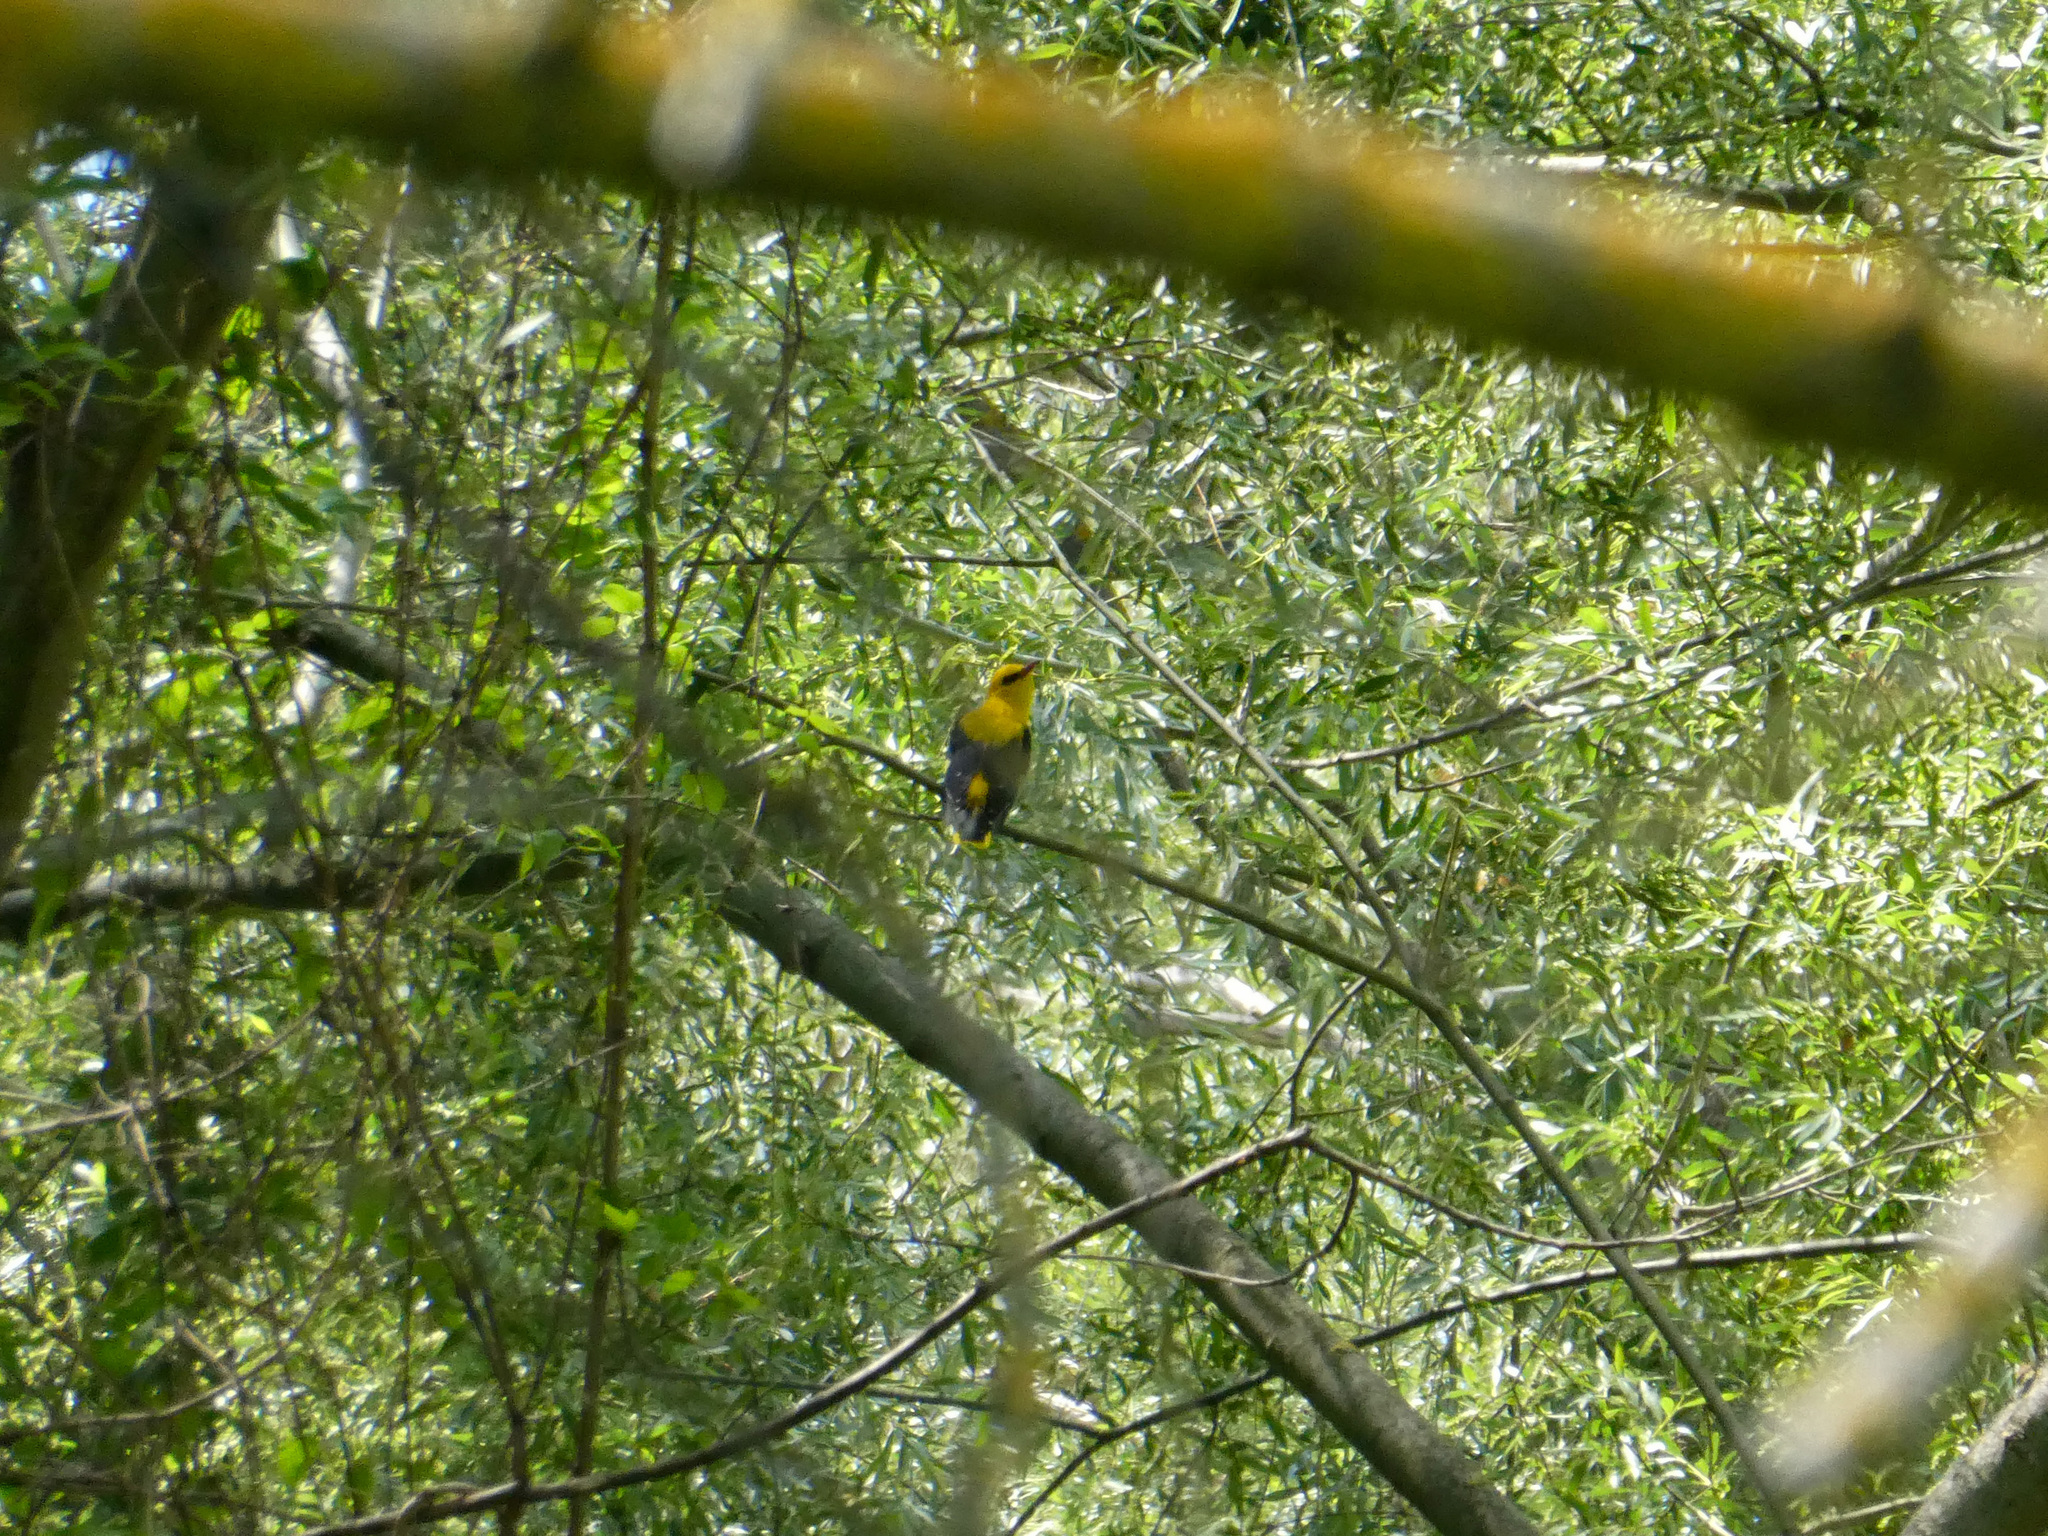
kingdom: Animalia
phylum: Chordata
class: Aves
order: Passeriformes
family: Oriolidae
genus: Oriolus
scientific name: Oriolus oriolus
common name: Eurasian golden oriole
